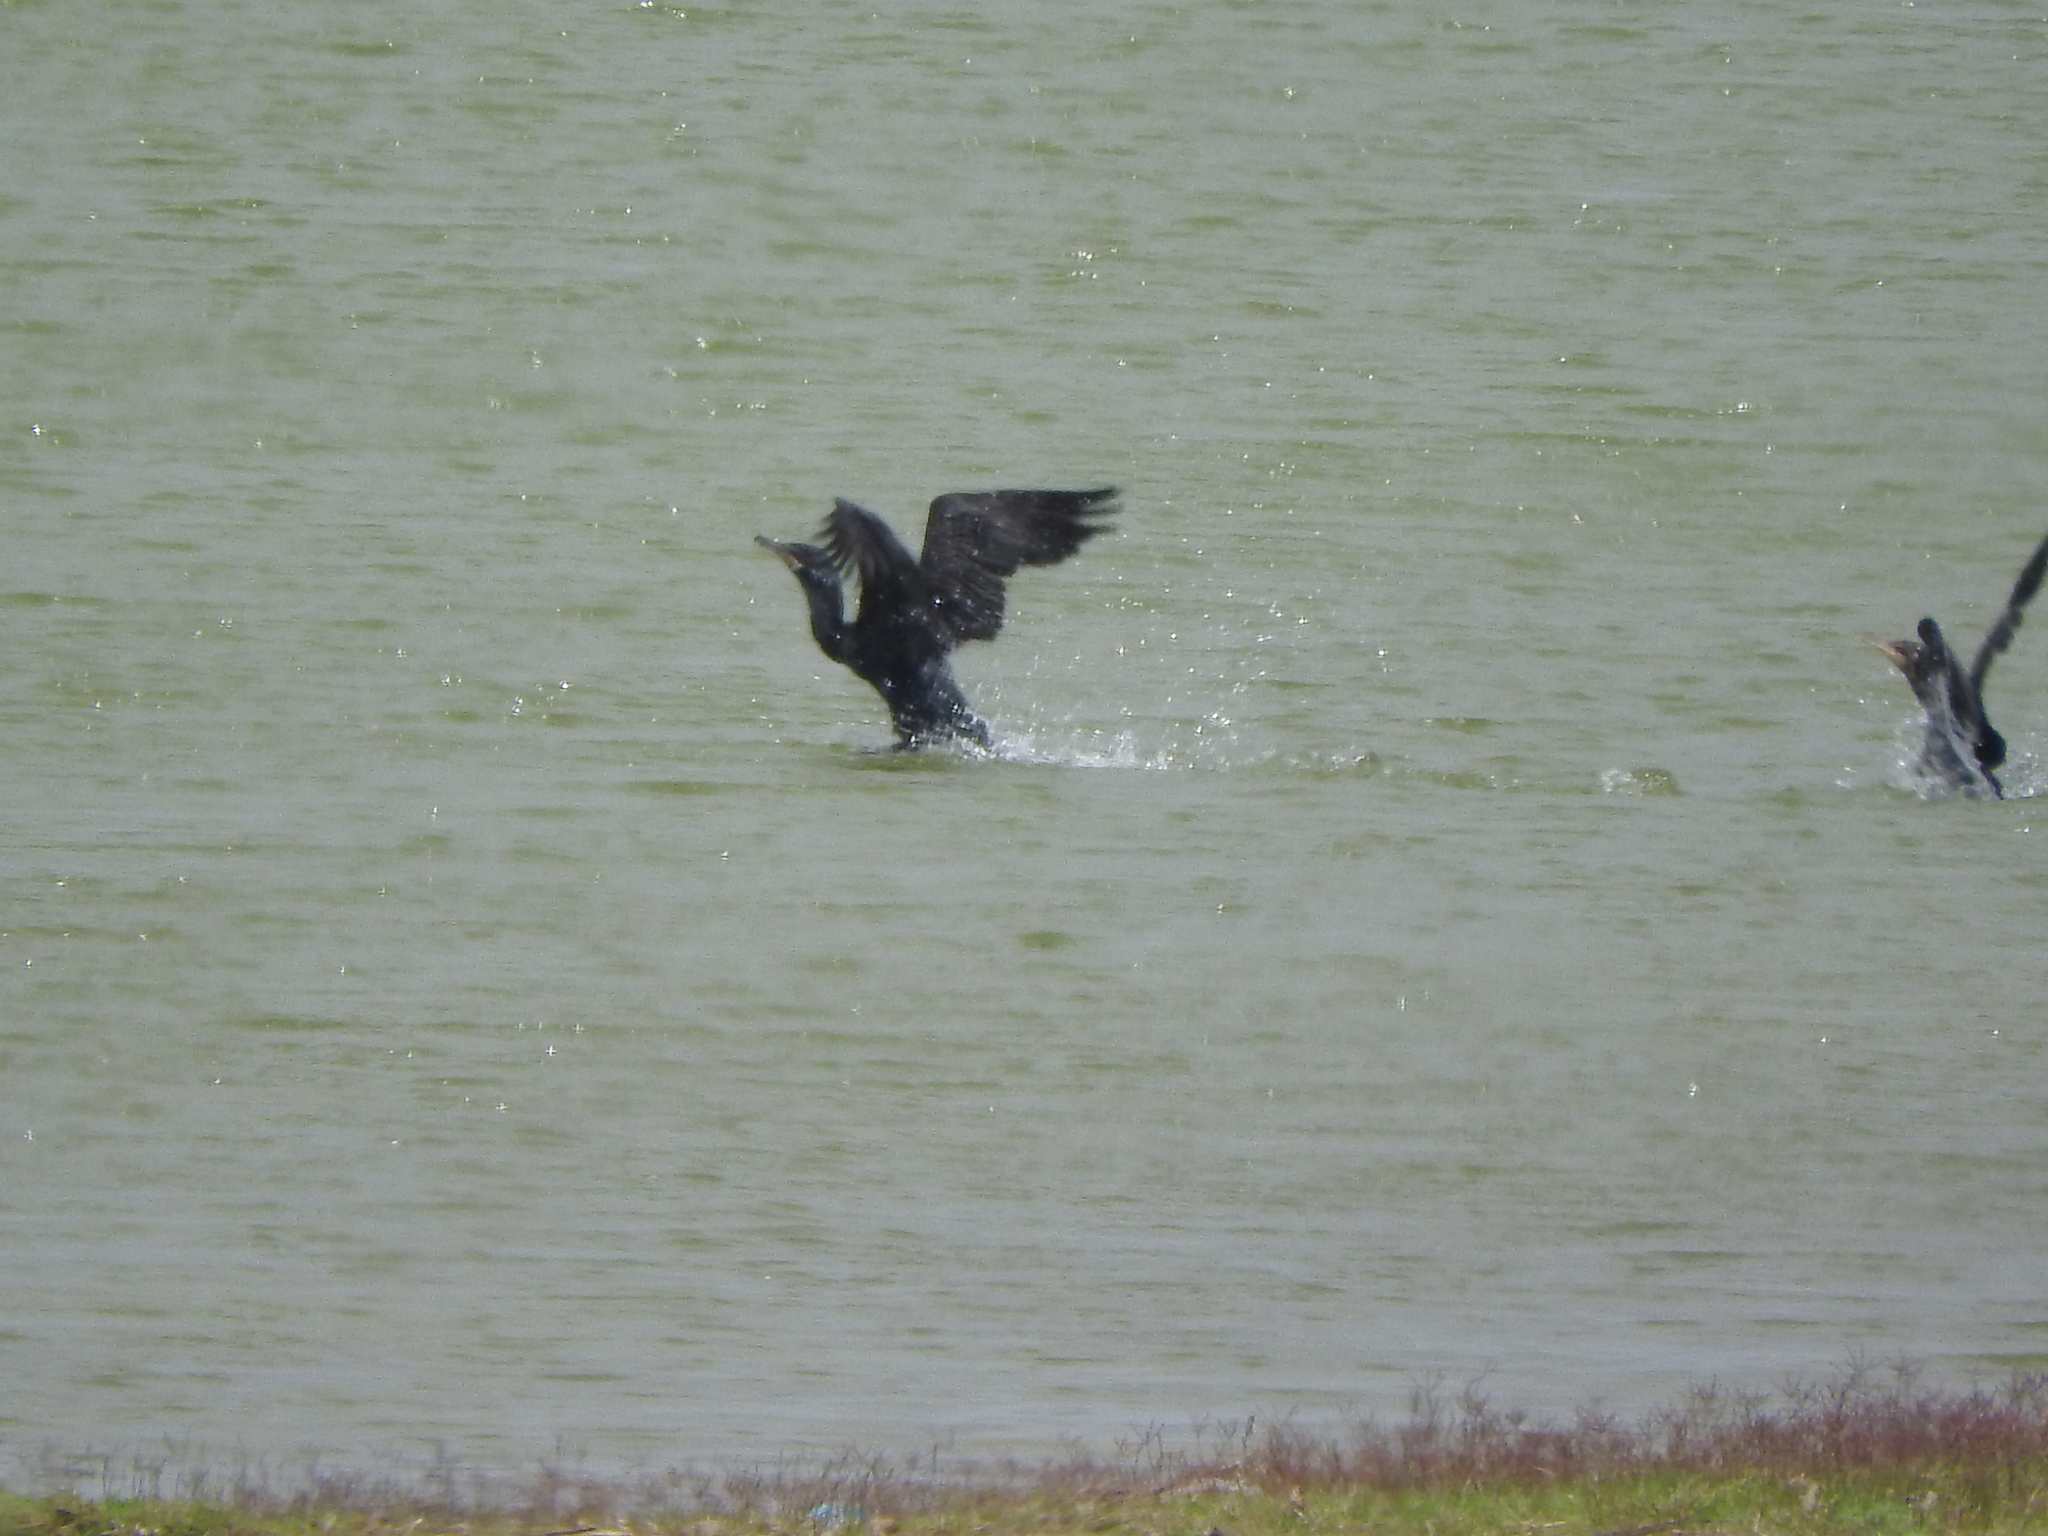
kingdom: Animalia
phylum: Chordata
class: Aves
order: Suliformes
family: Phalacrocoracidae
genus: Phalacrocorax
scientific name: Phalacrocorax brasilianus
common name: Neotropic cormorant
